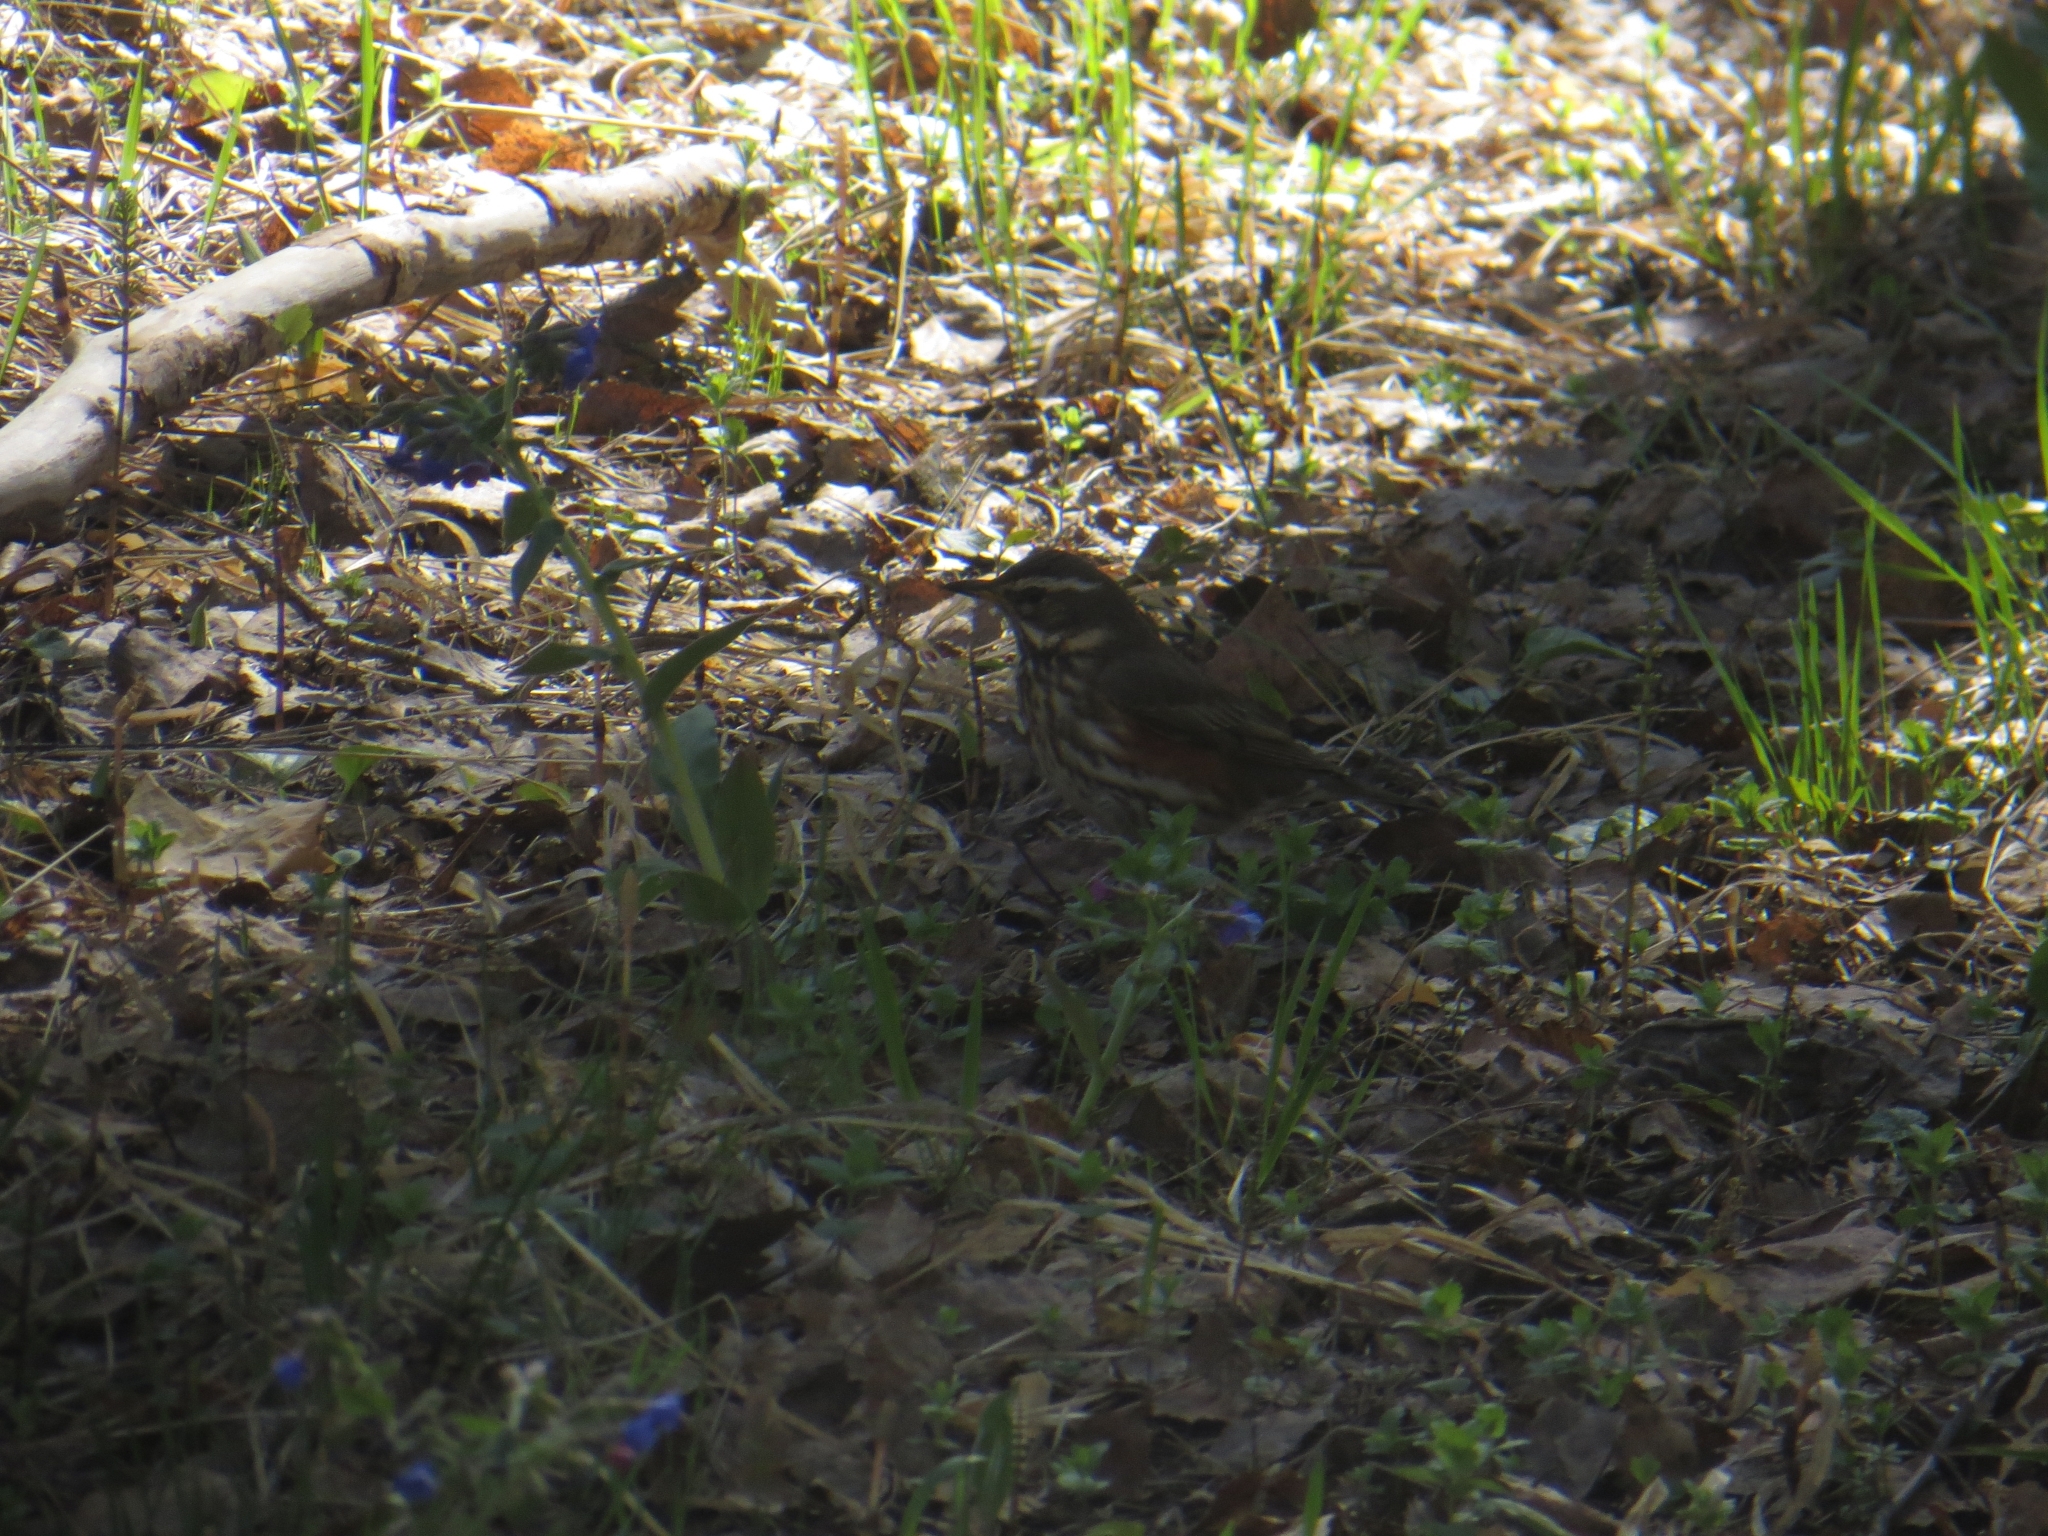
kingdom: Animalia
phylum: Chordata
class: Aves
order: Passeriformes
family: Turdidae
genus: Turdus
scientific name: Turdus iliacus
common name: Redwing
